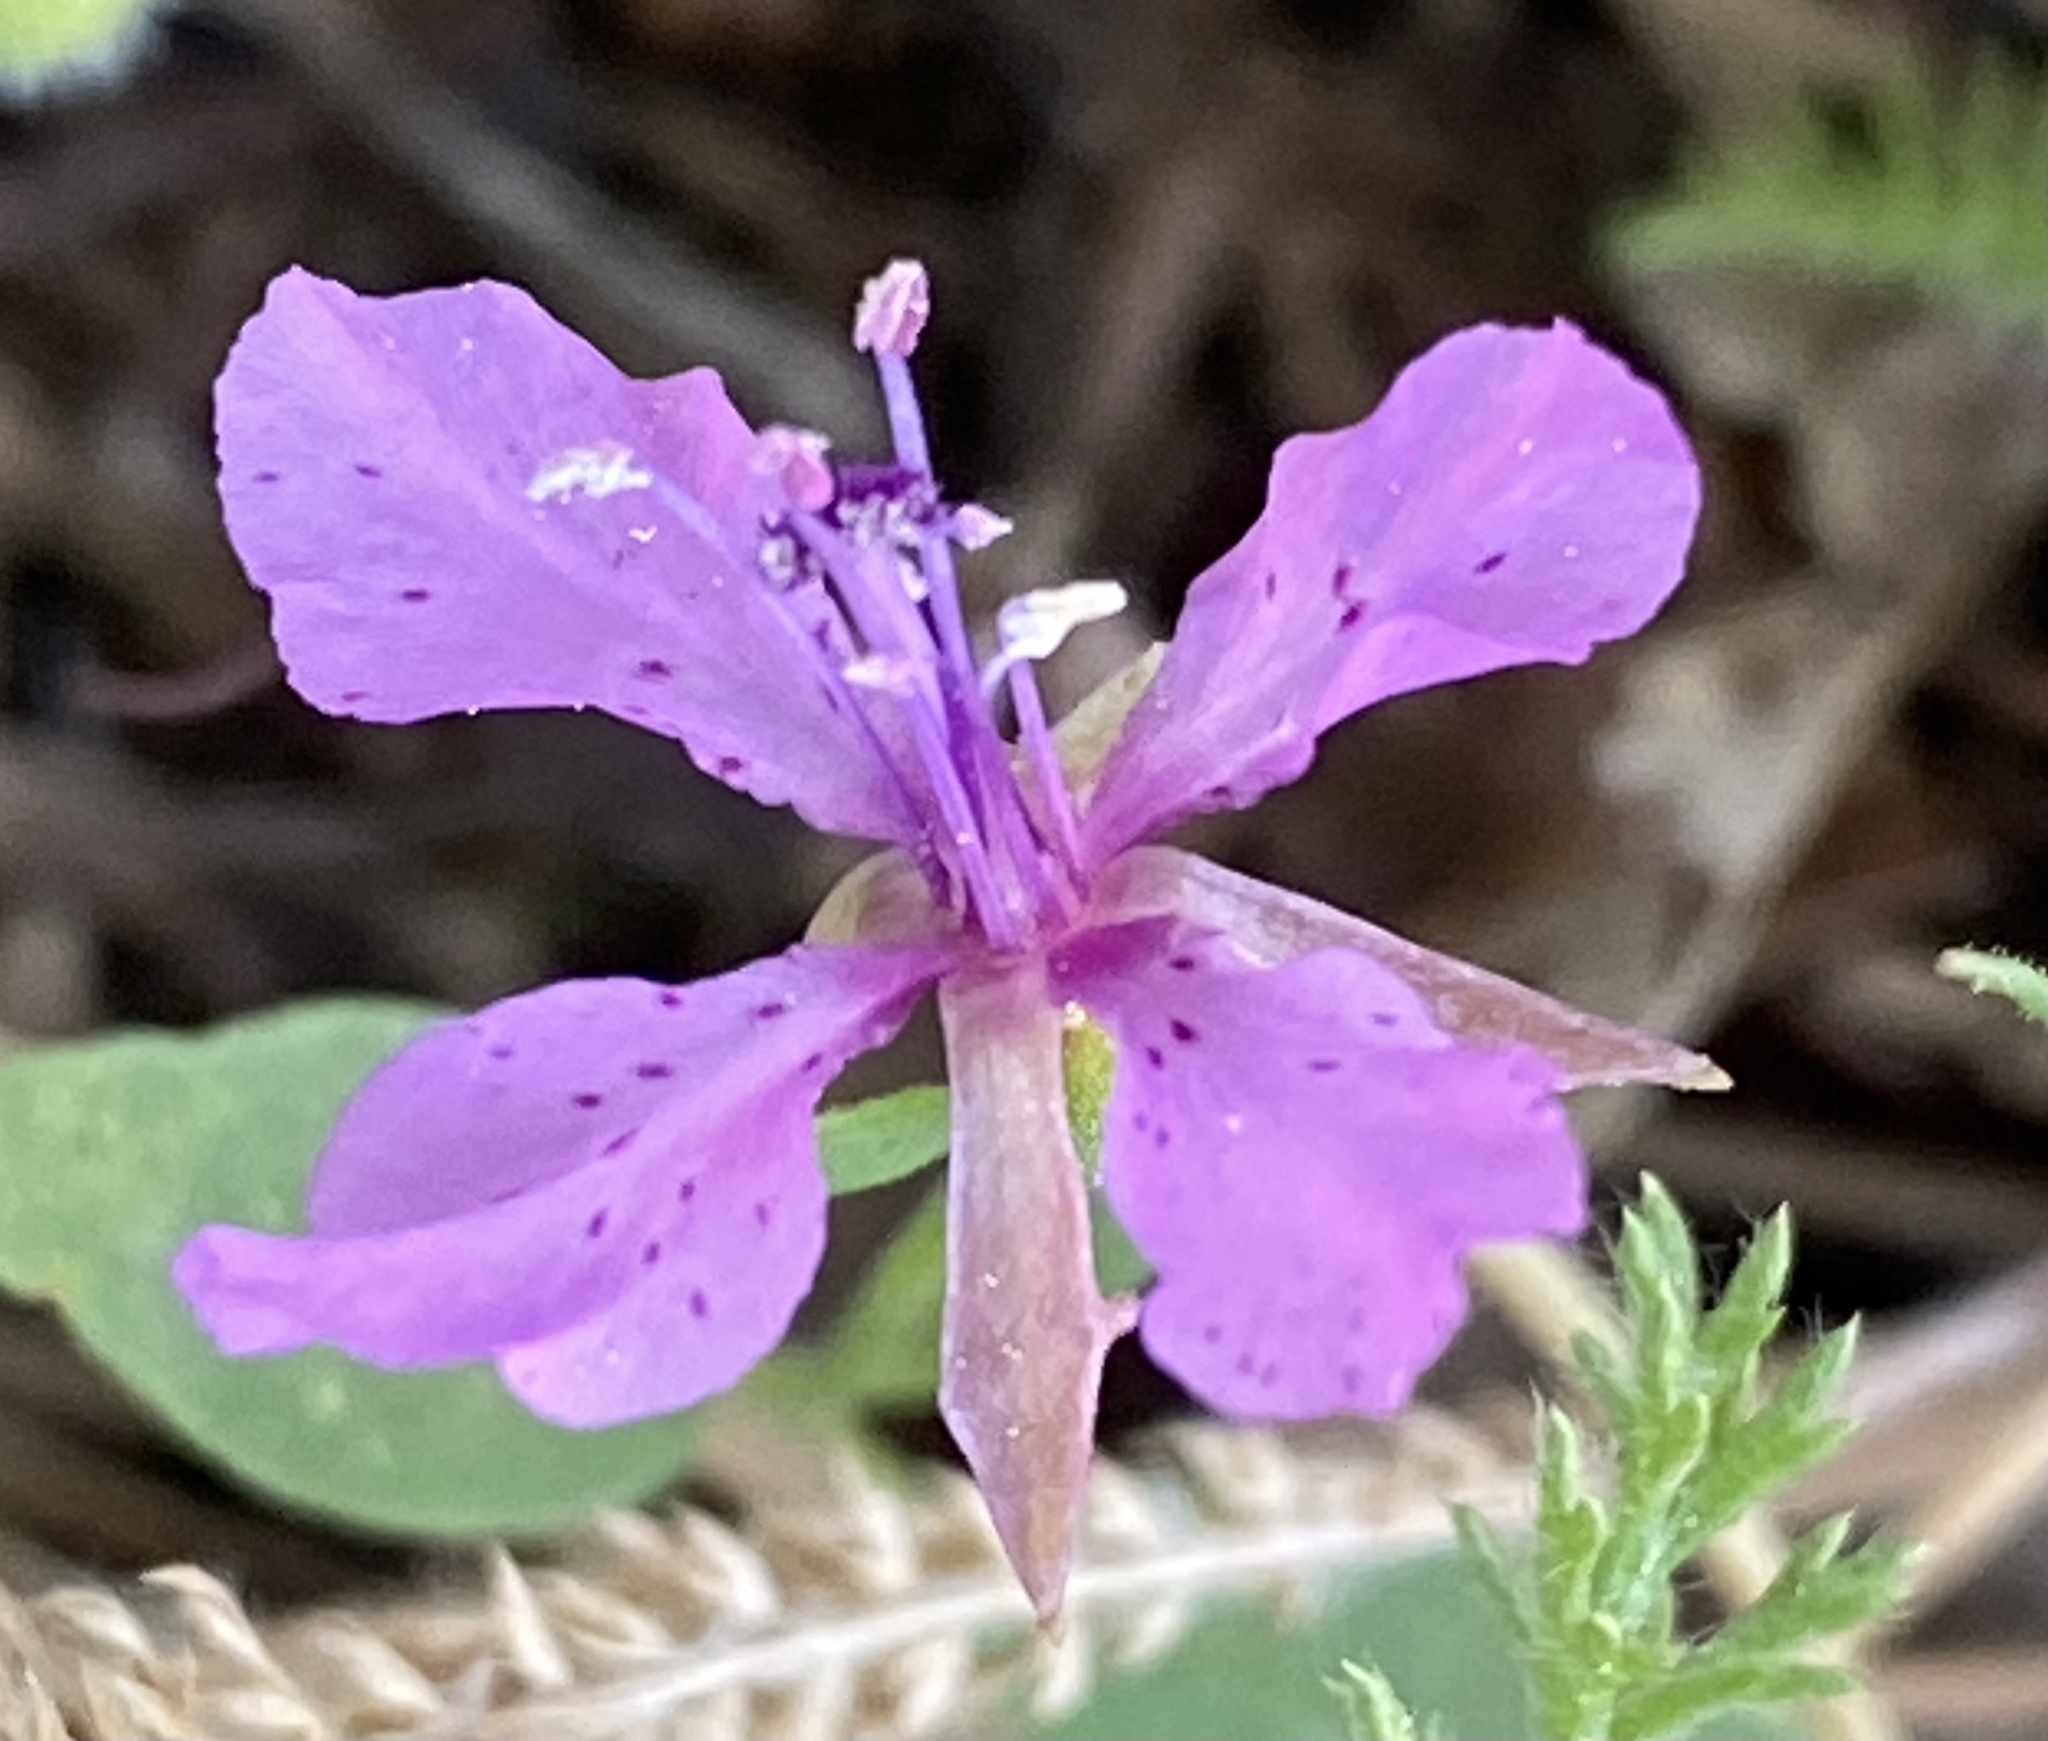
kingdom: Plantae
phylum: Tracheophyta
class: Magnoliopsida
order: Myrtales
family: Onagraceae
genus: Clarkia
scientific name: Clarkia rhomboidea
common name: Broadleaf clarkia
